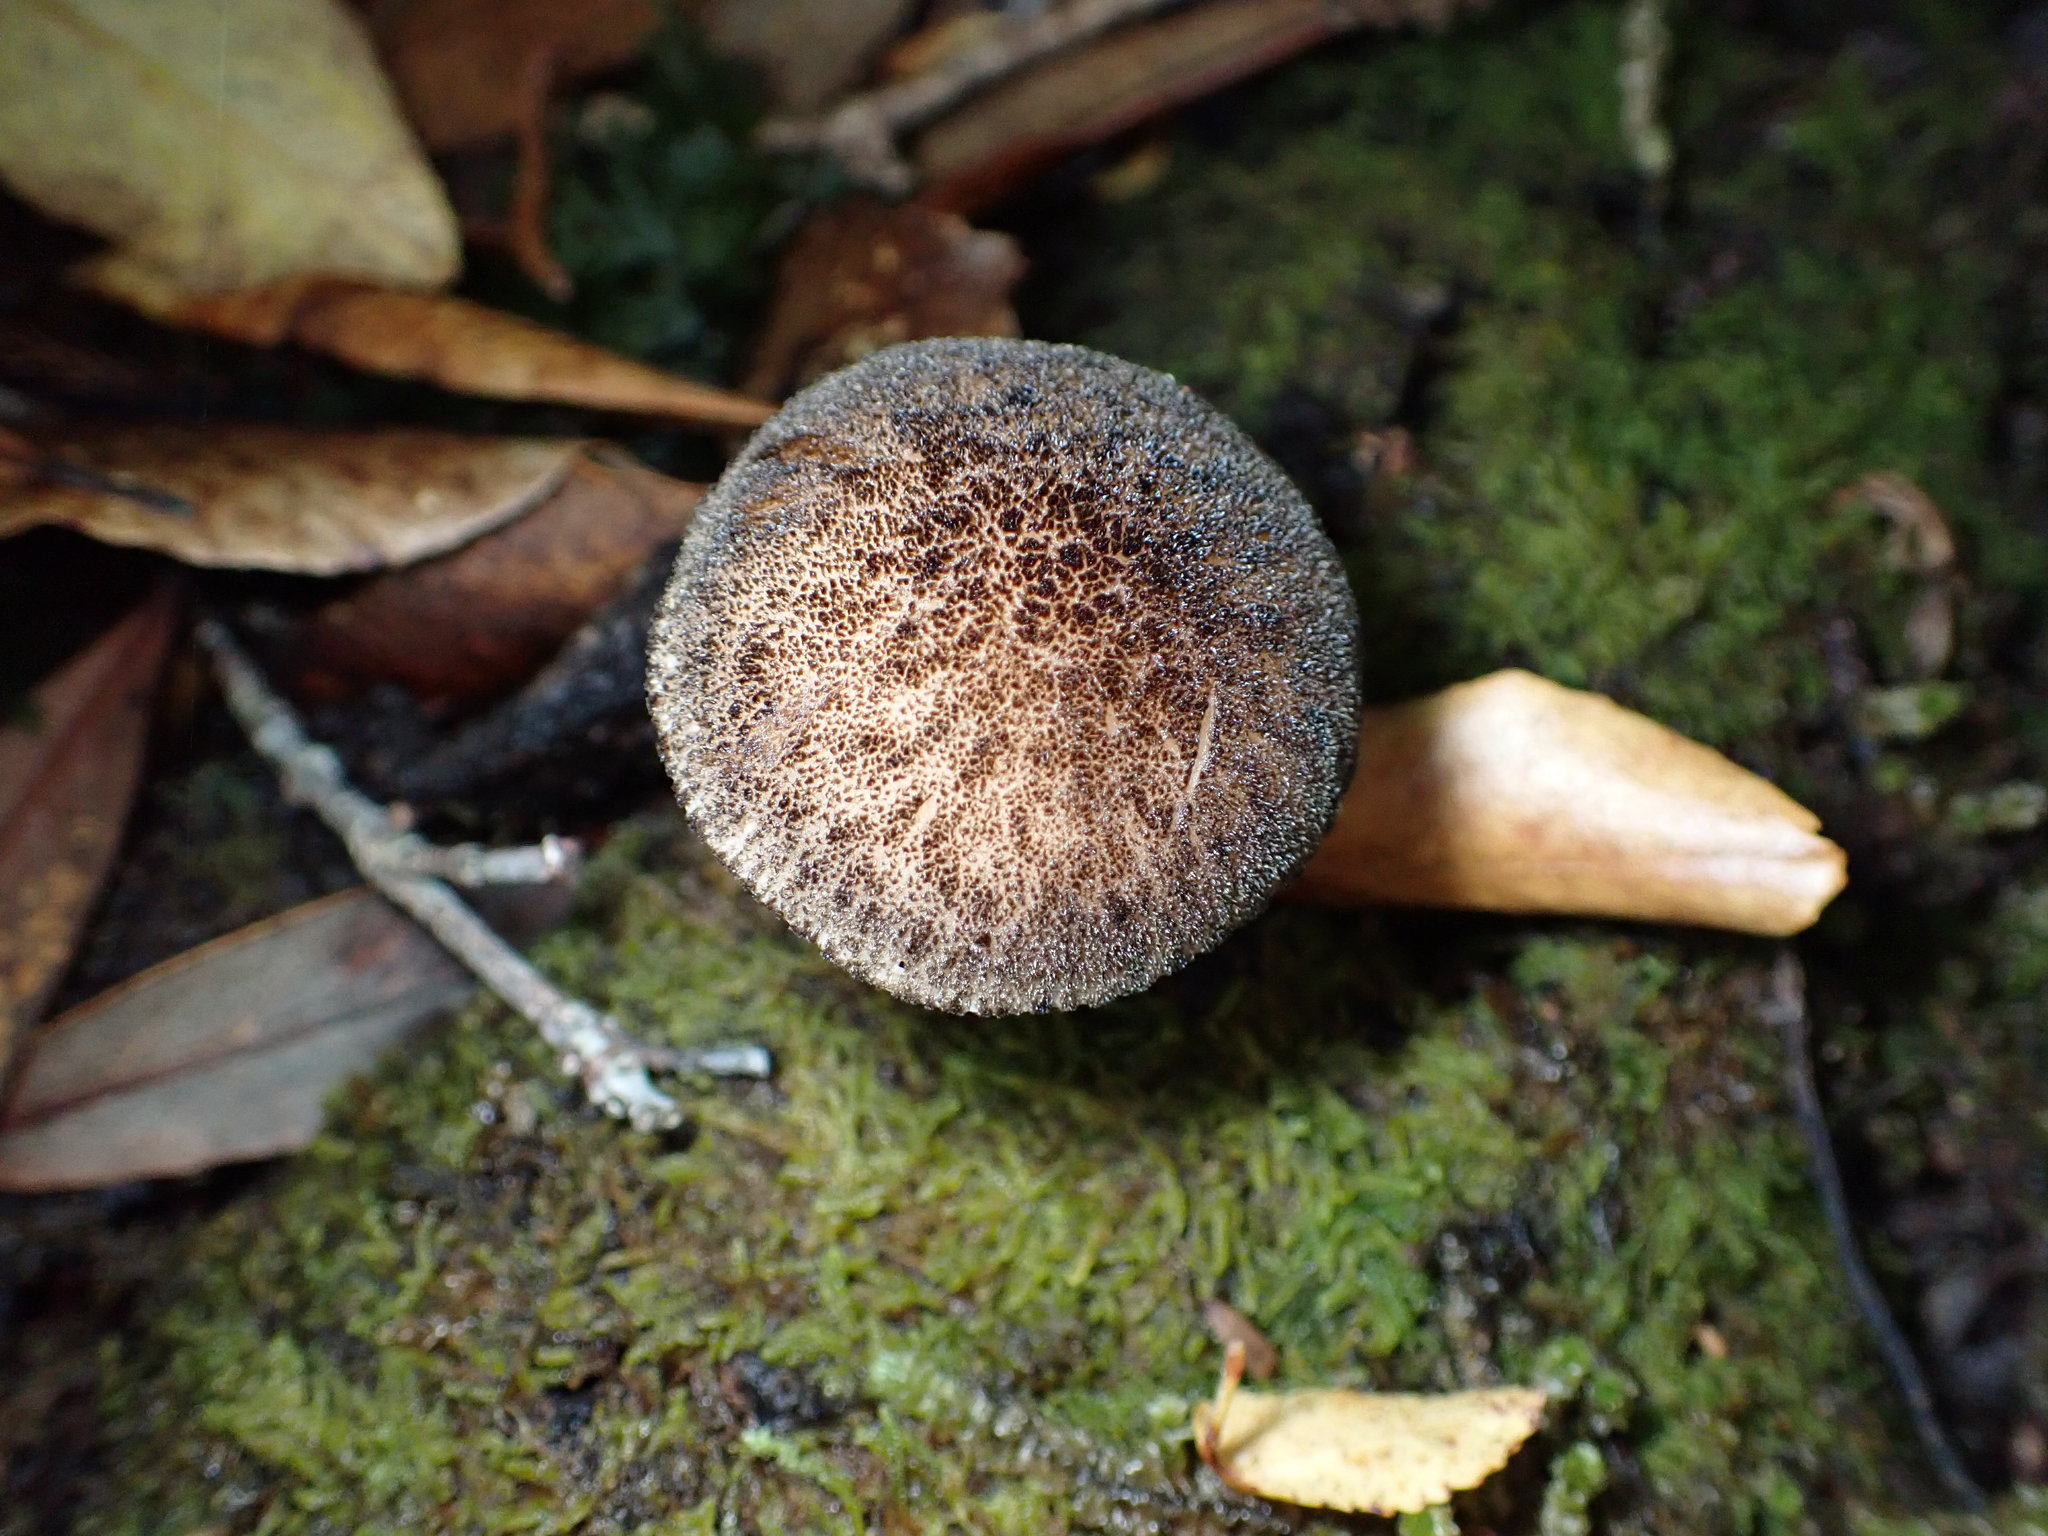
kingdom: Fungi
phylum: Basidiomycota
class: Agaricomycetes
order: Agaricales
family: Pluteaceae
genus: Pluteus
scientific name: Pluteus perroseus
